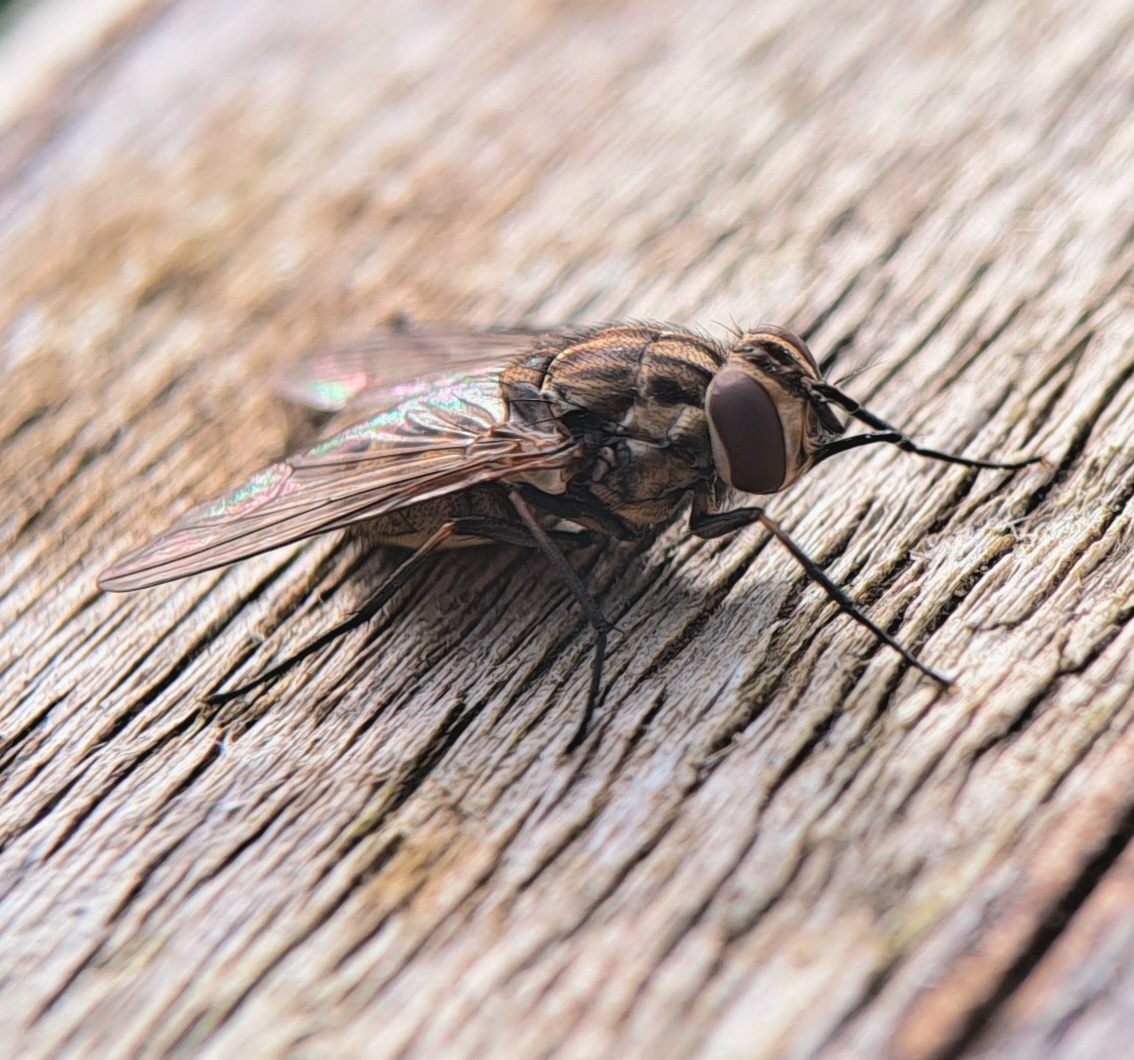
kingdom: Animalia
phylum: Arthropoda
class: Insecta
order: Diptera
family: Muscidae
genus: Stomoxys
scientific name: Stomoxys calcitrans
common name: Stable fly
